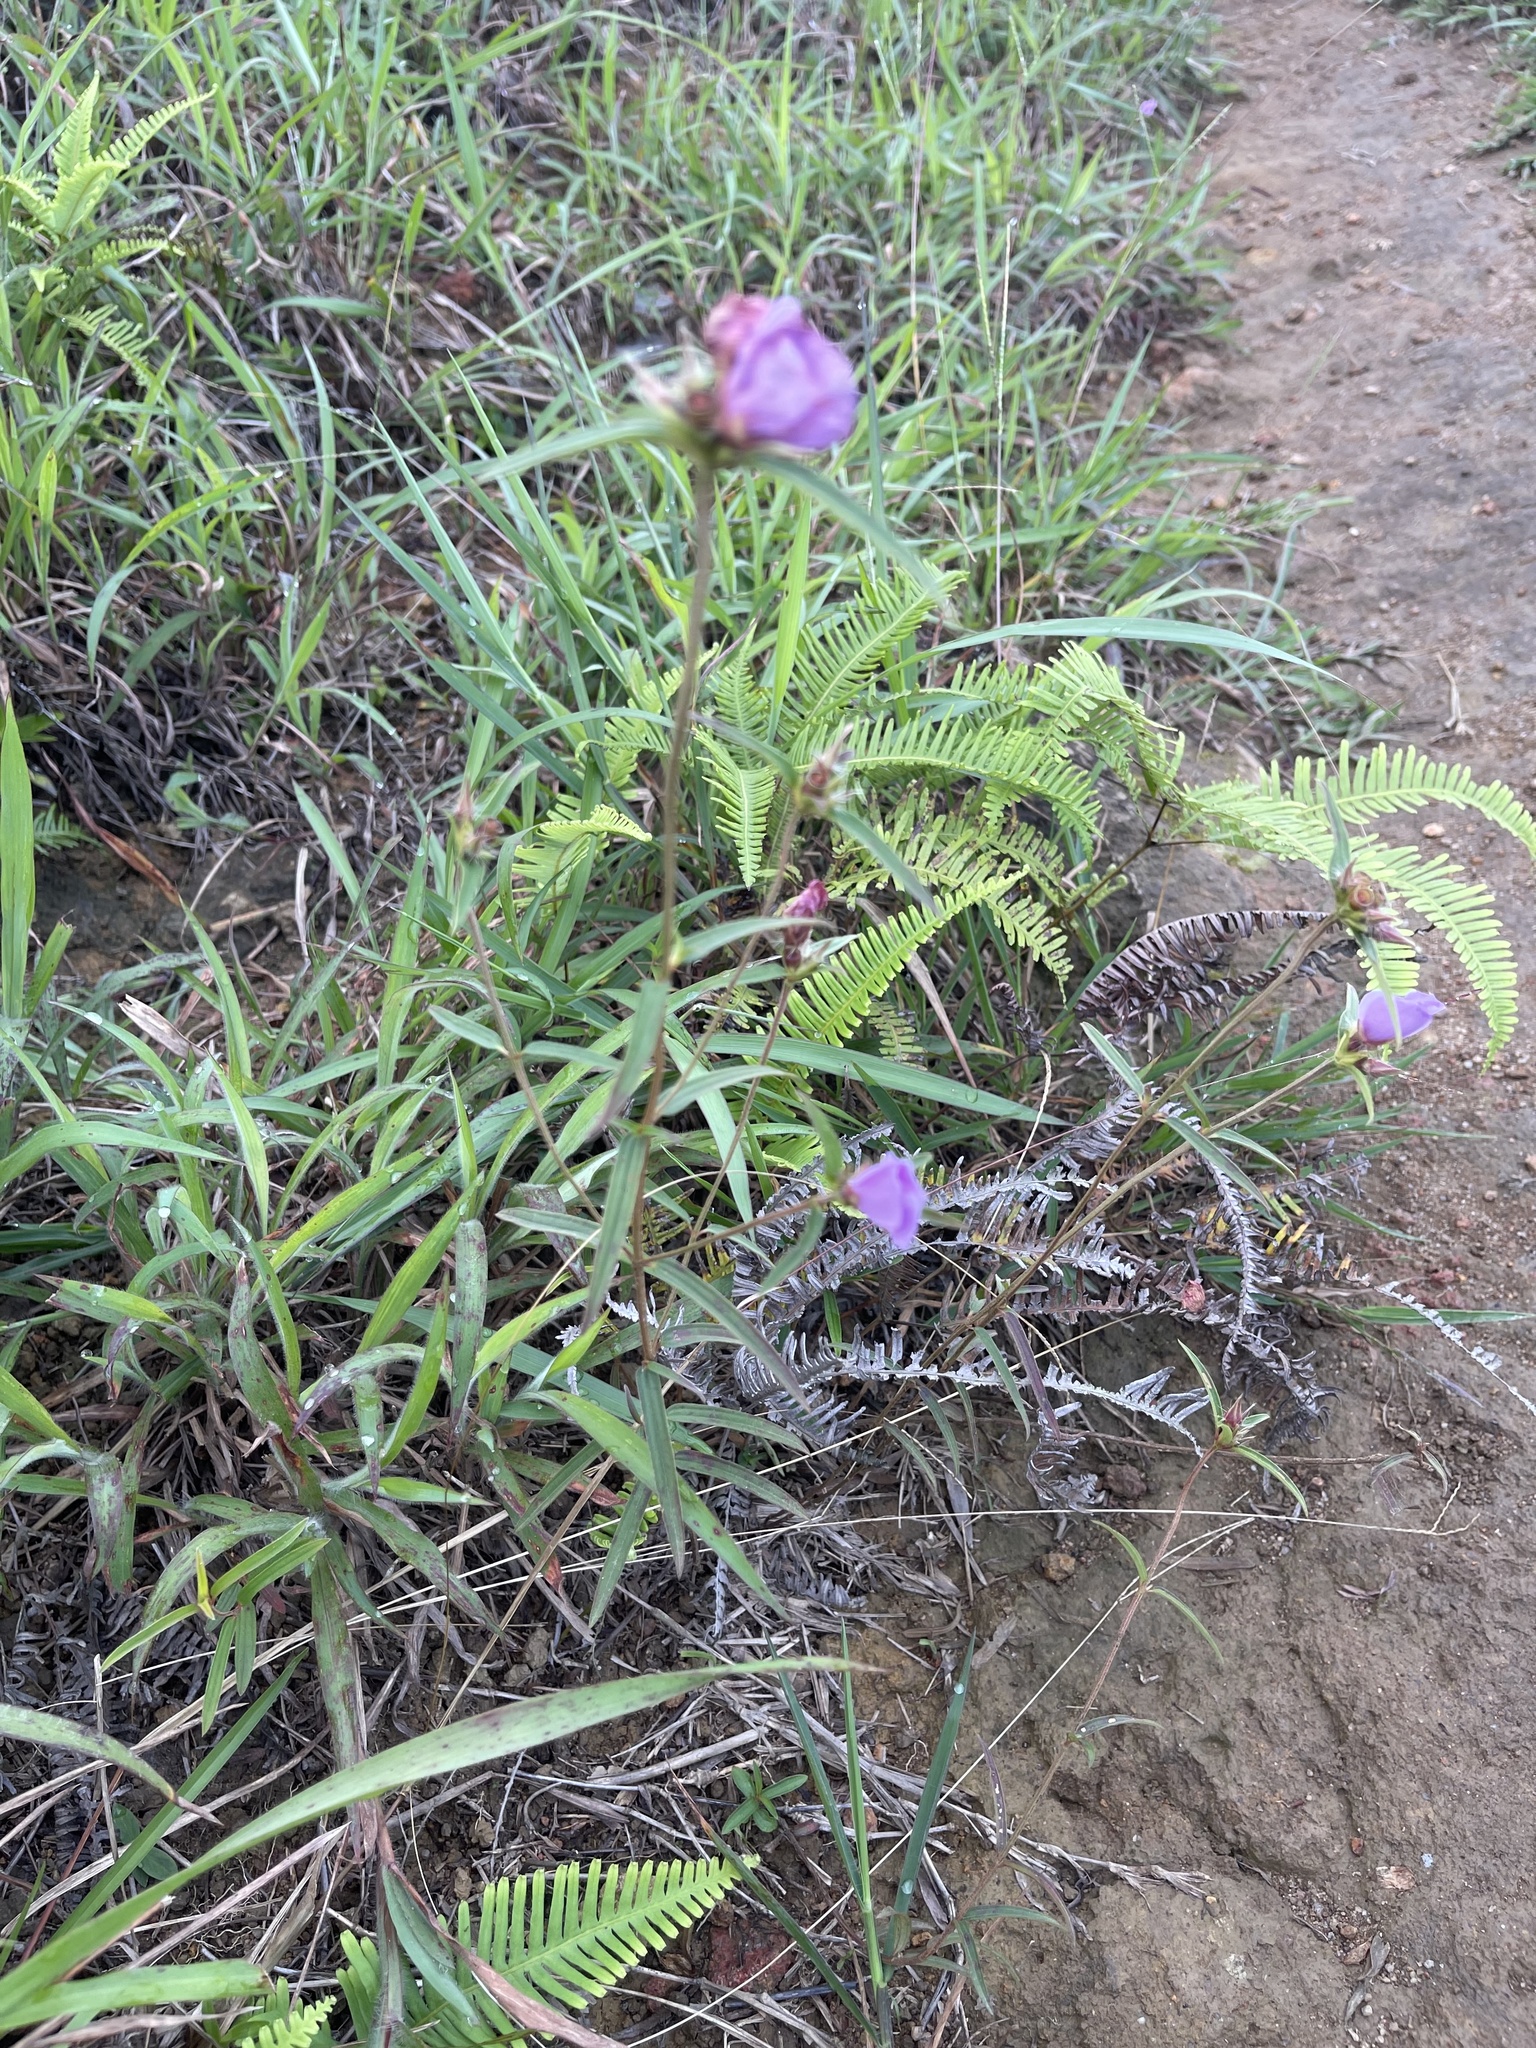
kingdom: Plantae
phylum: Tracheophyta
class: Magnoliopsida
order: Myrtales
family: Melastomataceae
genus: Osbeckia
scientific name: Osbeckia chinensis
